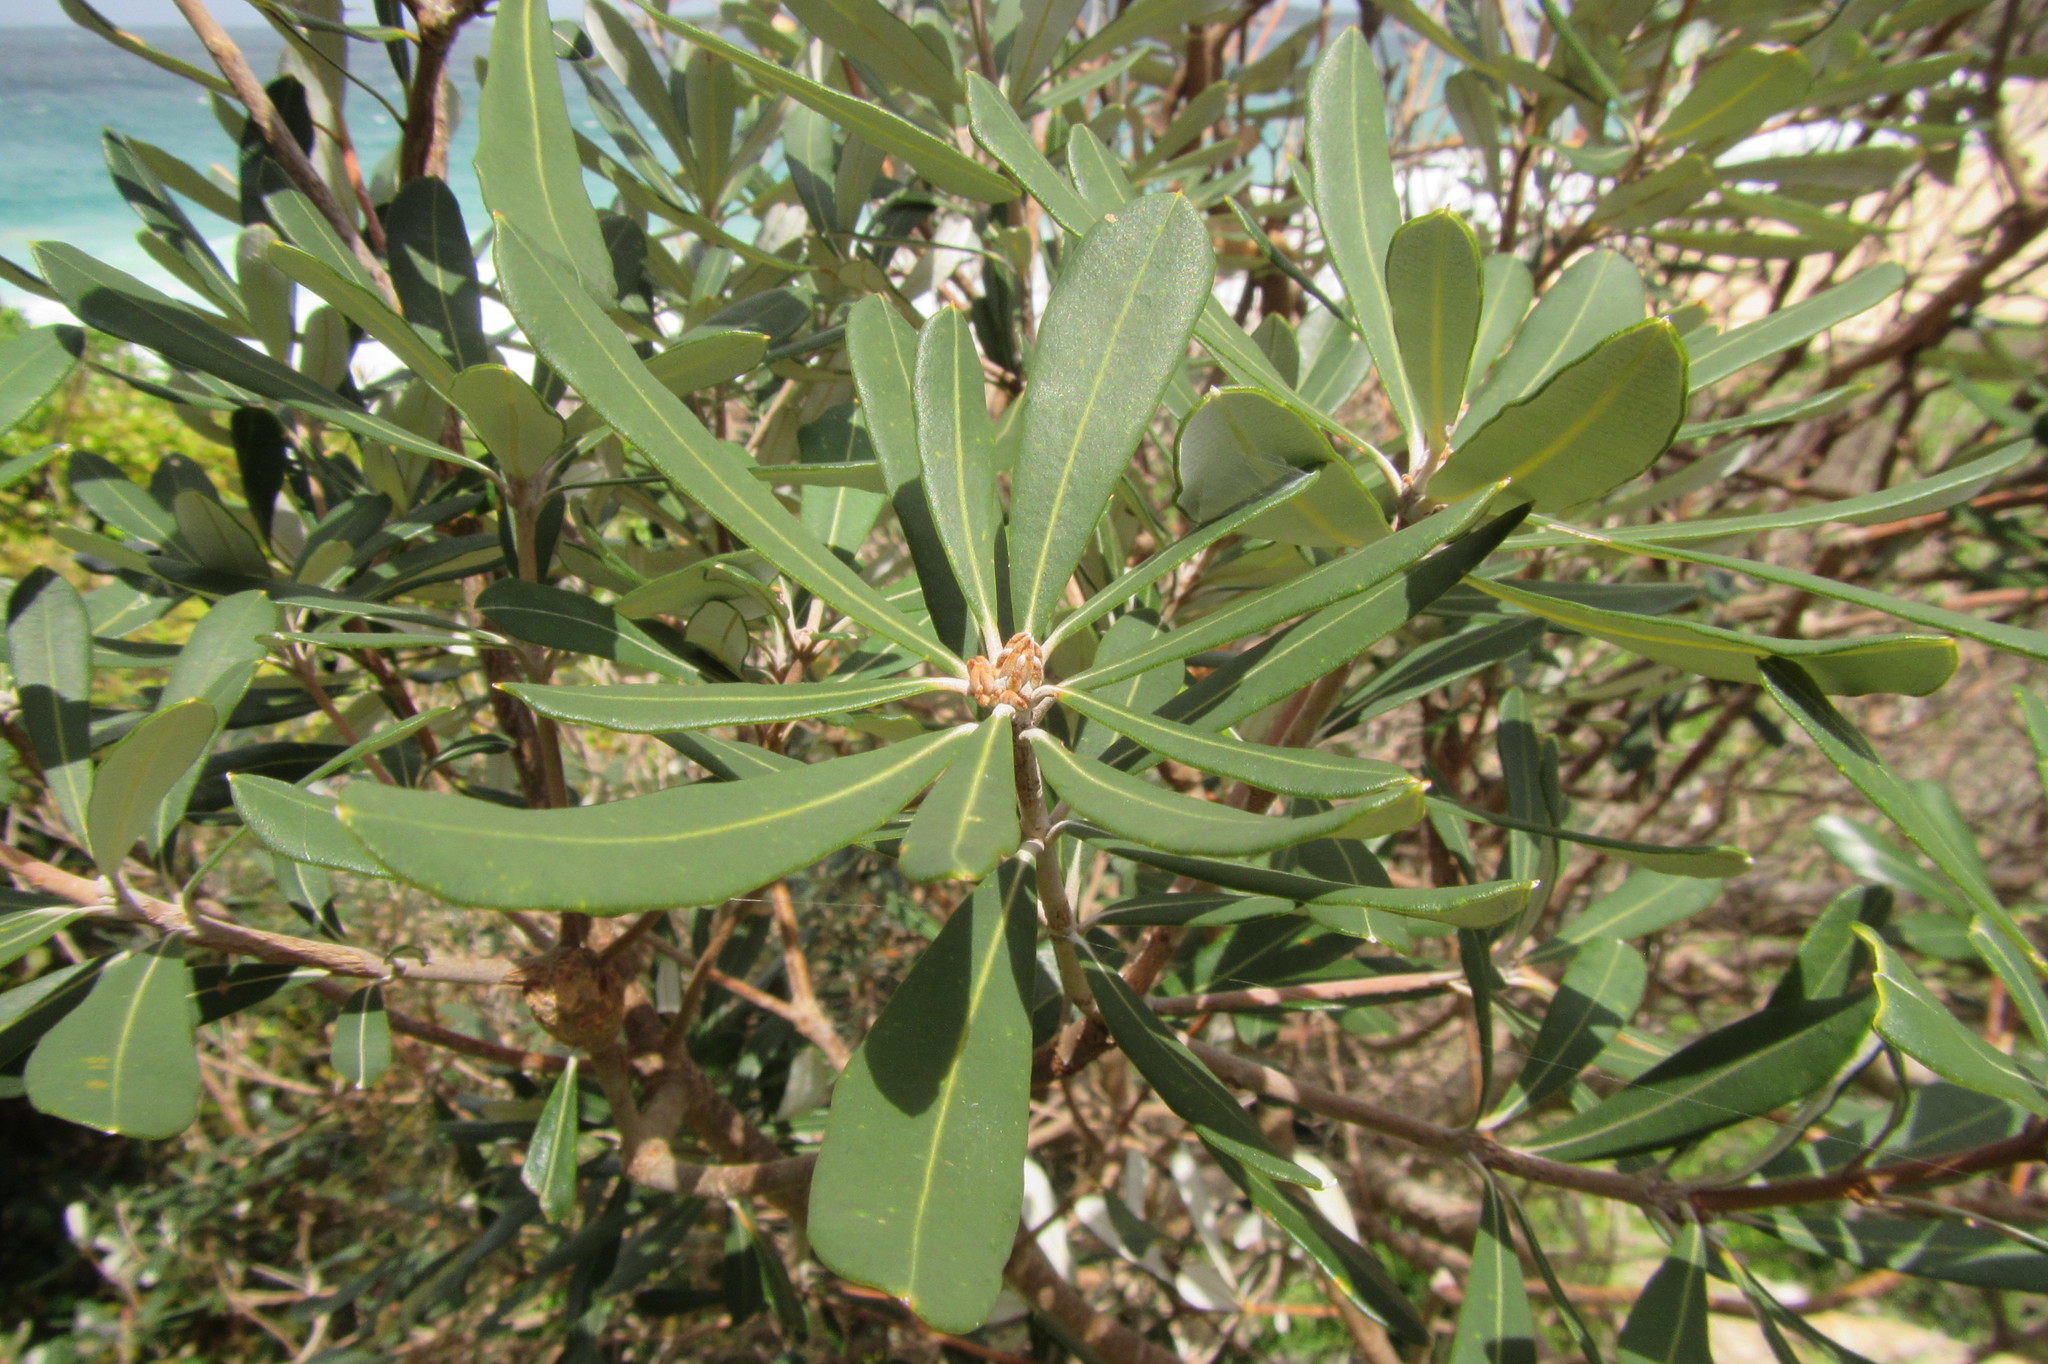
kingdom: Plantae
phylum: Tracheophyta
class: Magnoliopsida
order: Proteales
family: Proteaceae
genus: Banksia
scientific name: Banksia integrifolia
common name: White-honeysuckle
